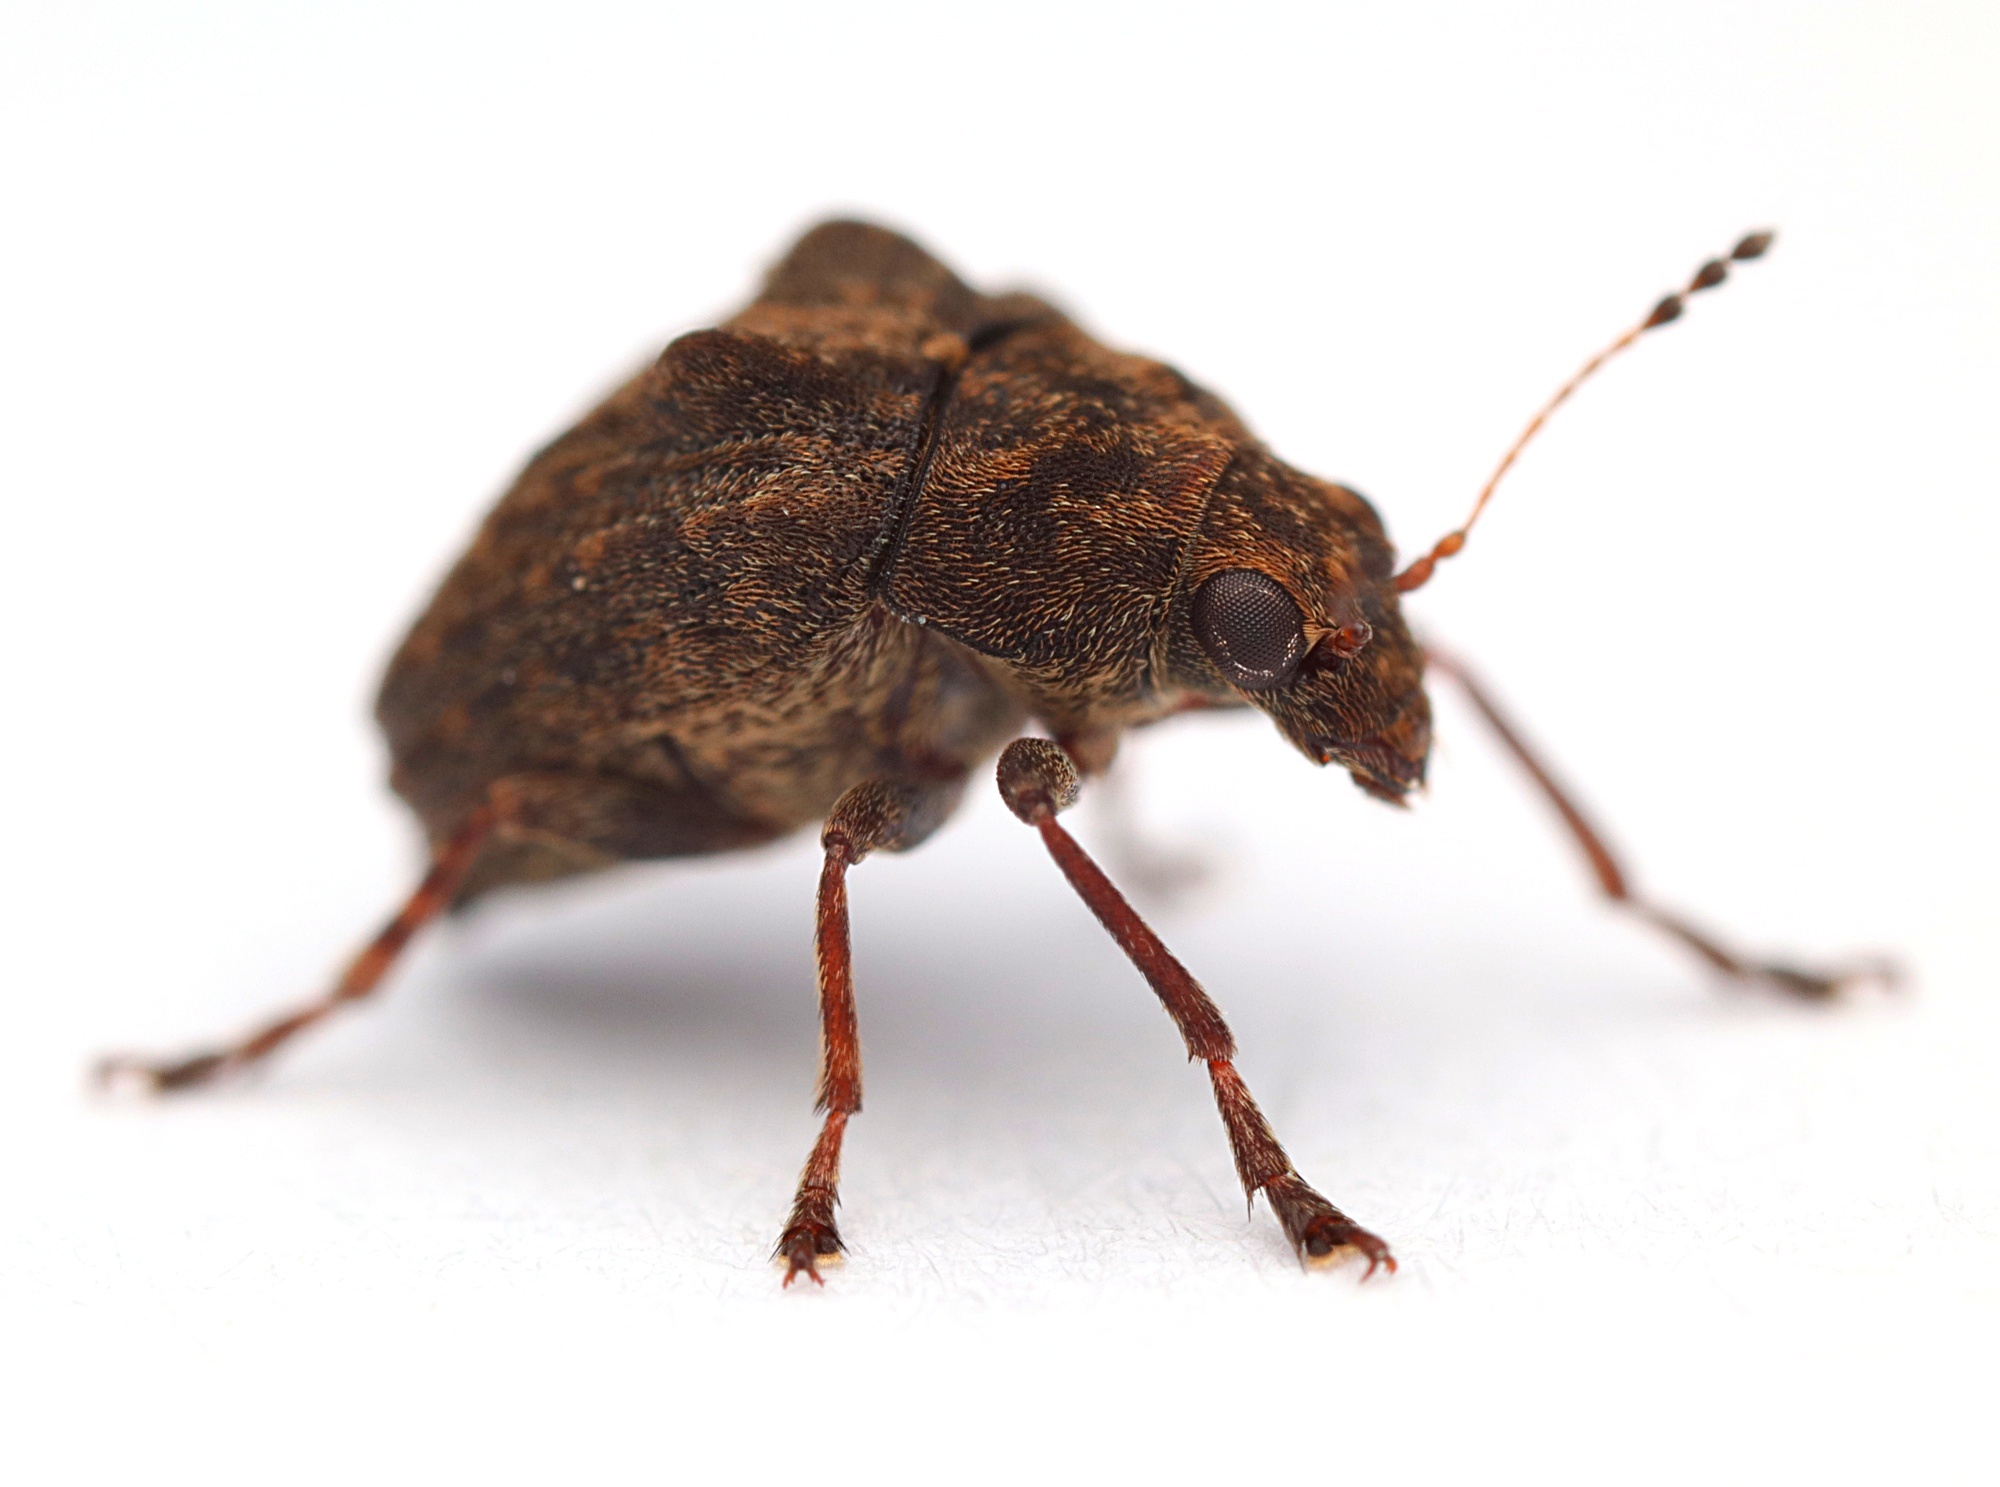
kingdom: Animalia
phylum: Arthropoda
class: Insecta
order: Coleoptera
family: Anthribidae
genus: Araecerus
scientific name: Araecerus
